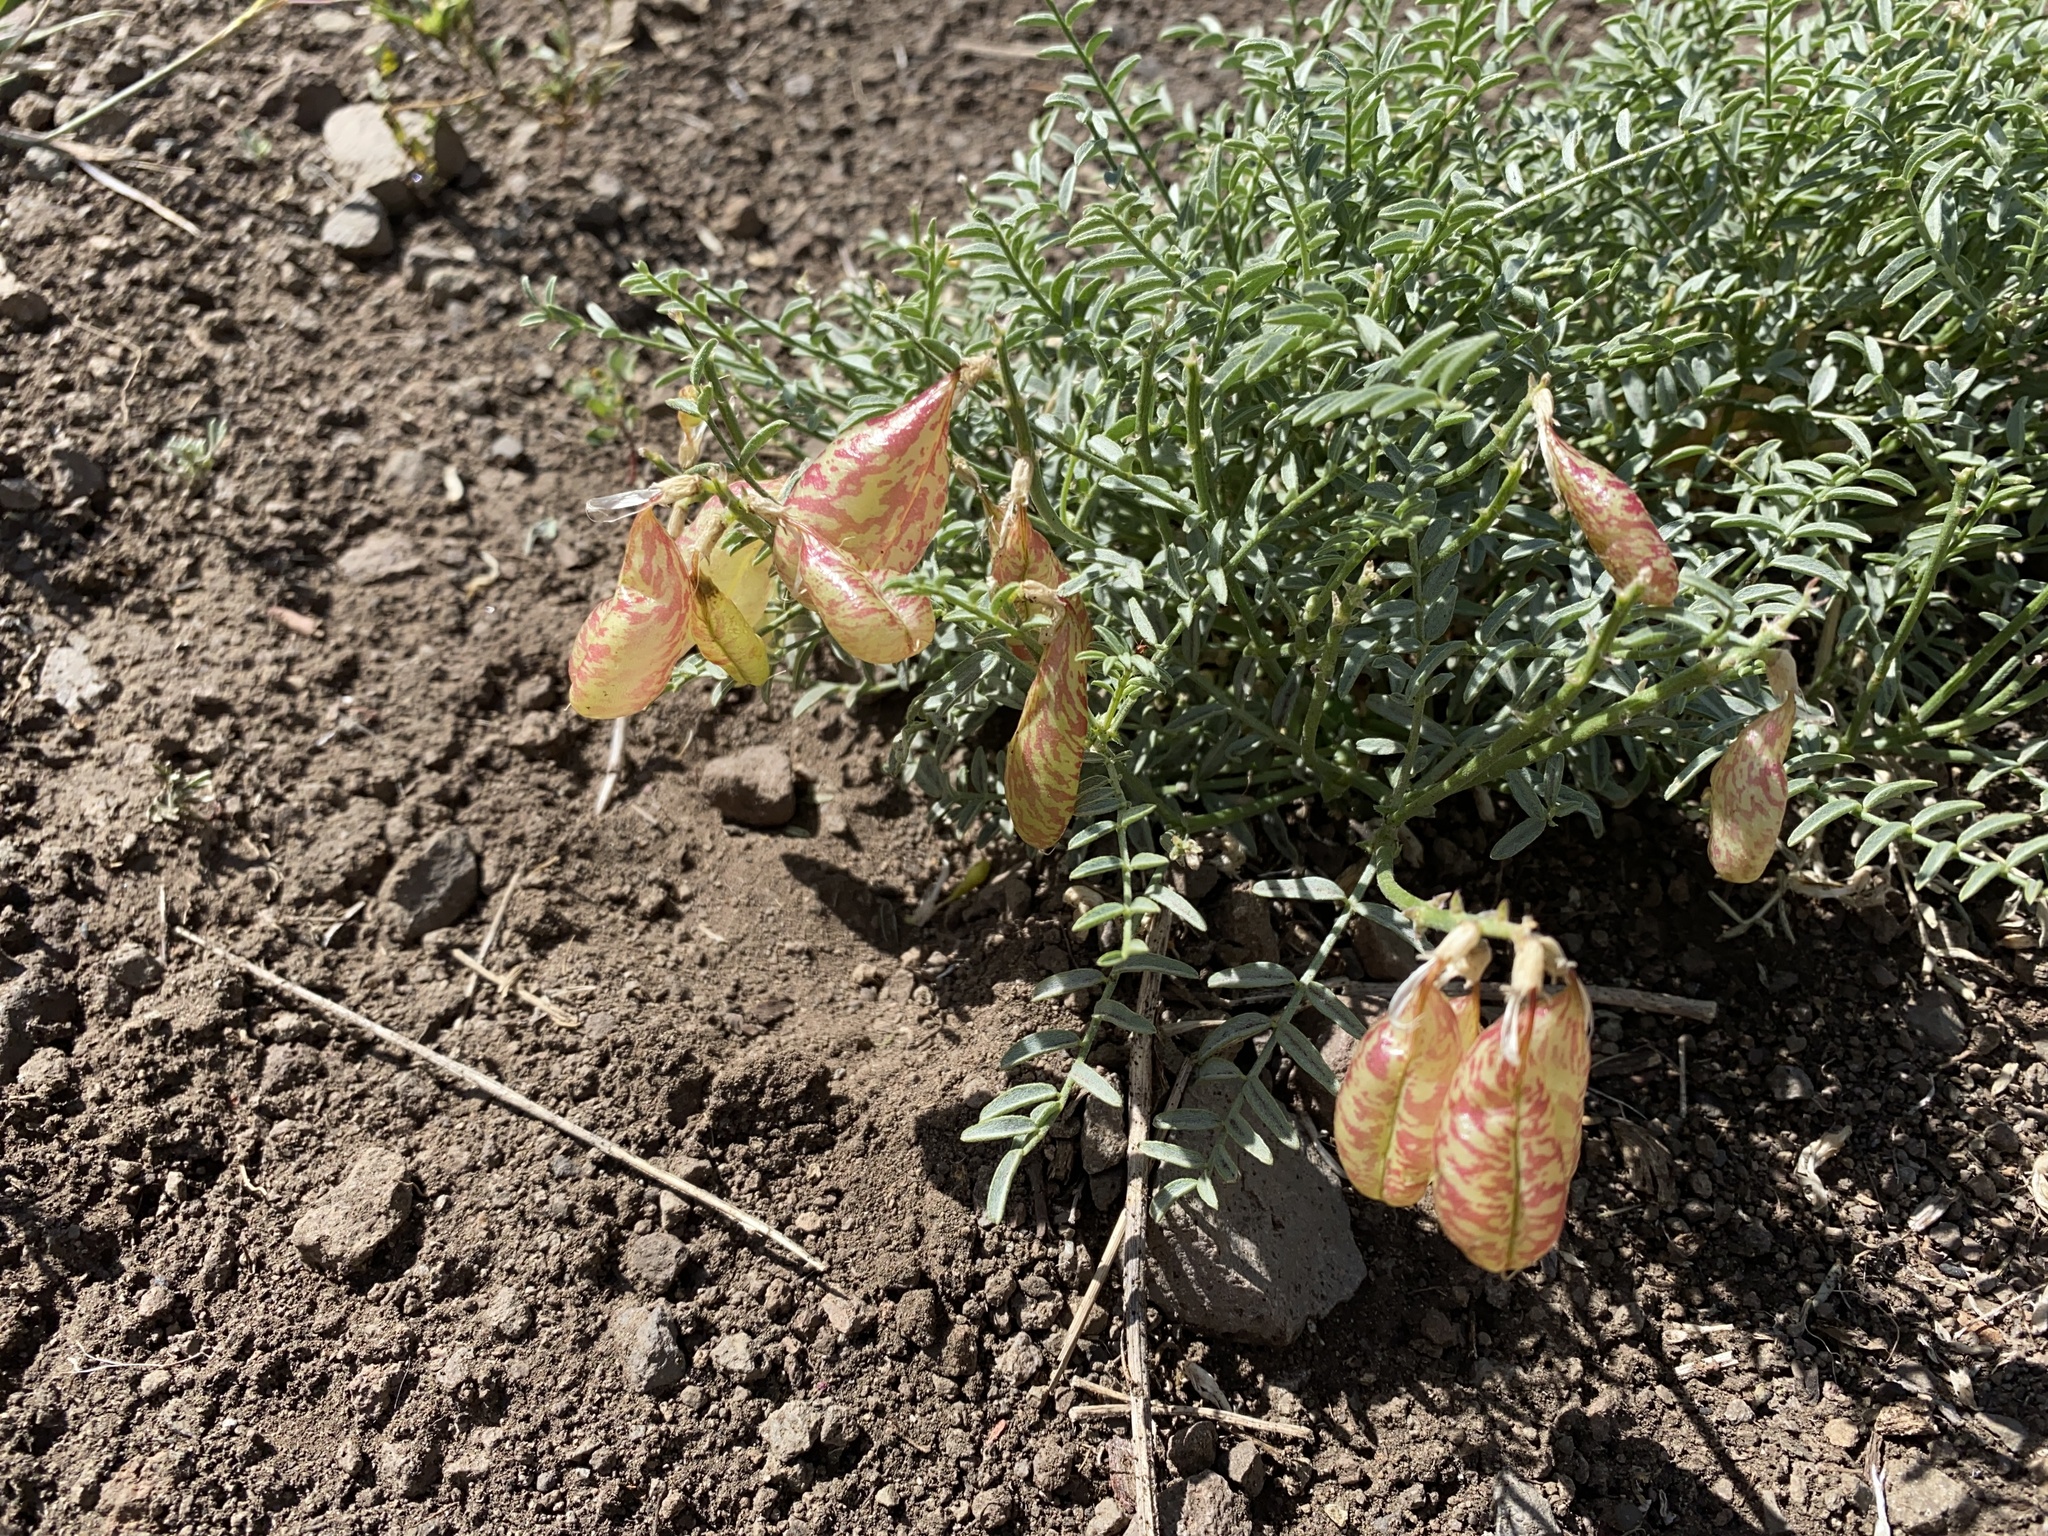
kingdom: Plantae
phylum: Tracheophyta
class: Magnoliopsida
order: Fabales
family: Fabaceae
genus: Astragalus
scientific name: Astragalus whitneyi
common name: Balloonpod milkvetch
